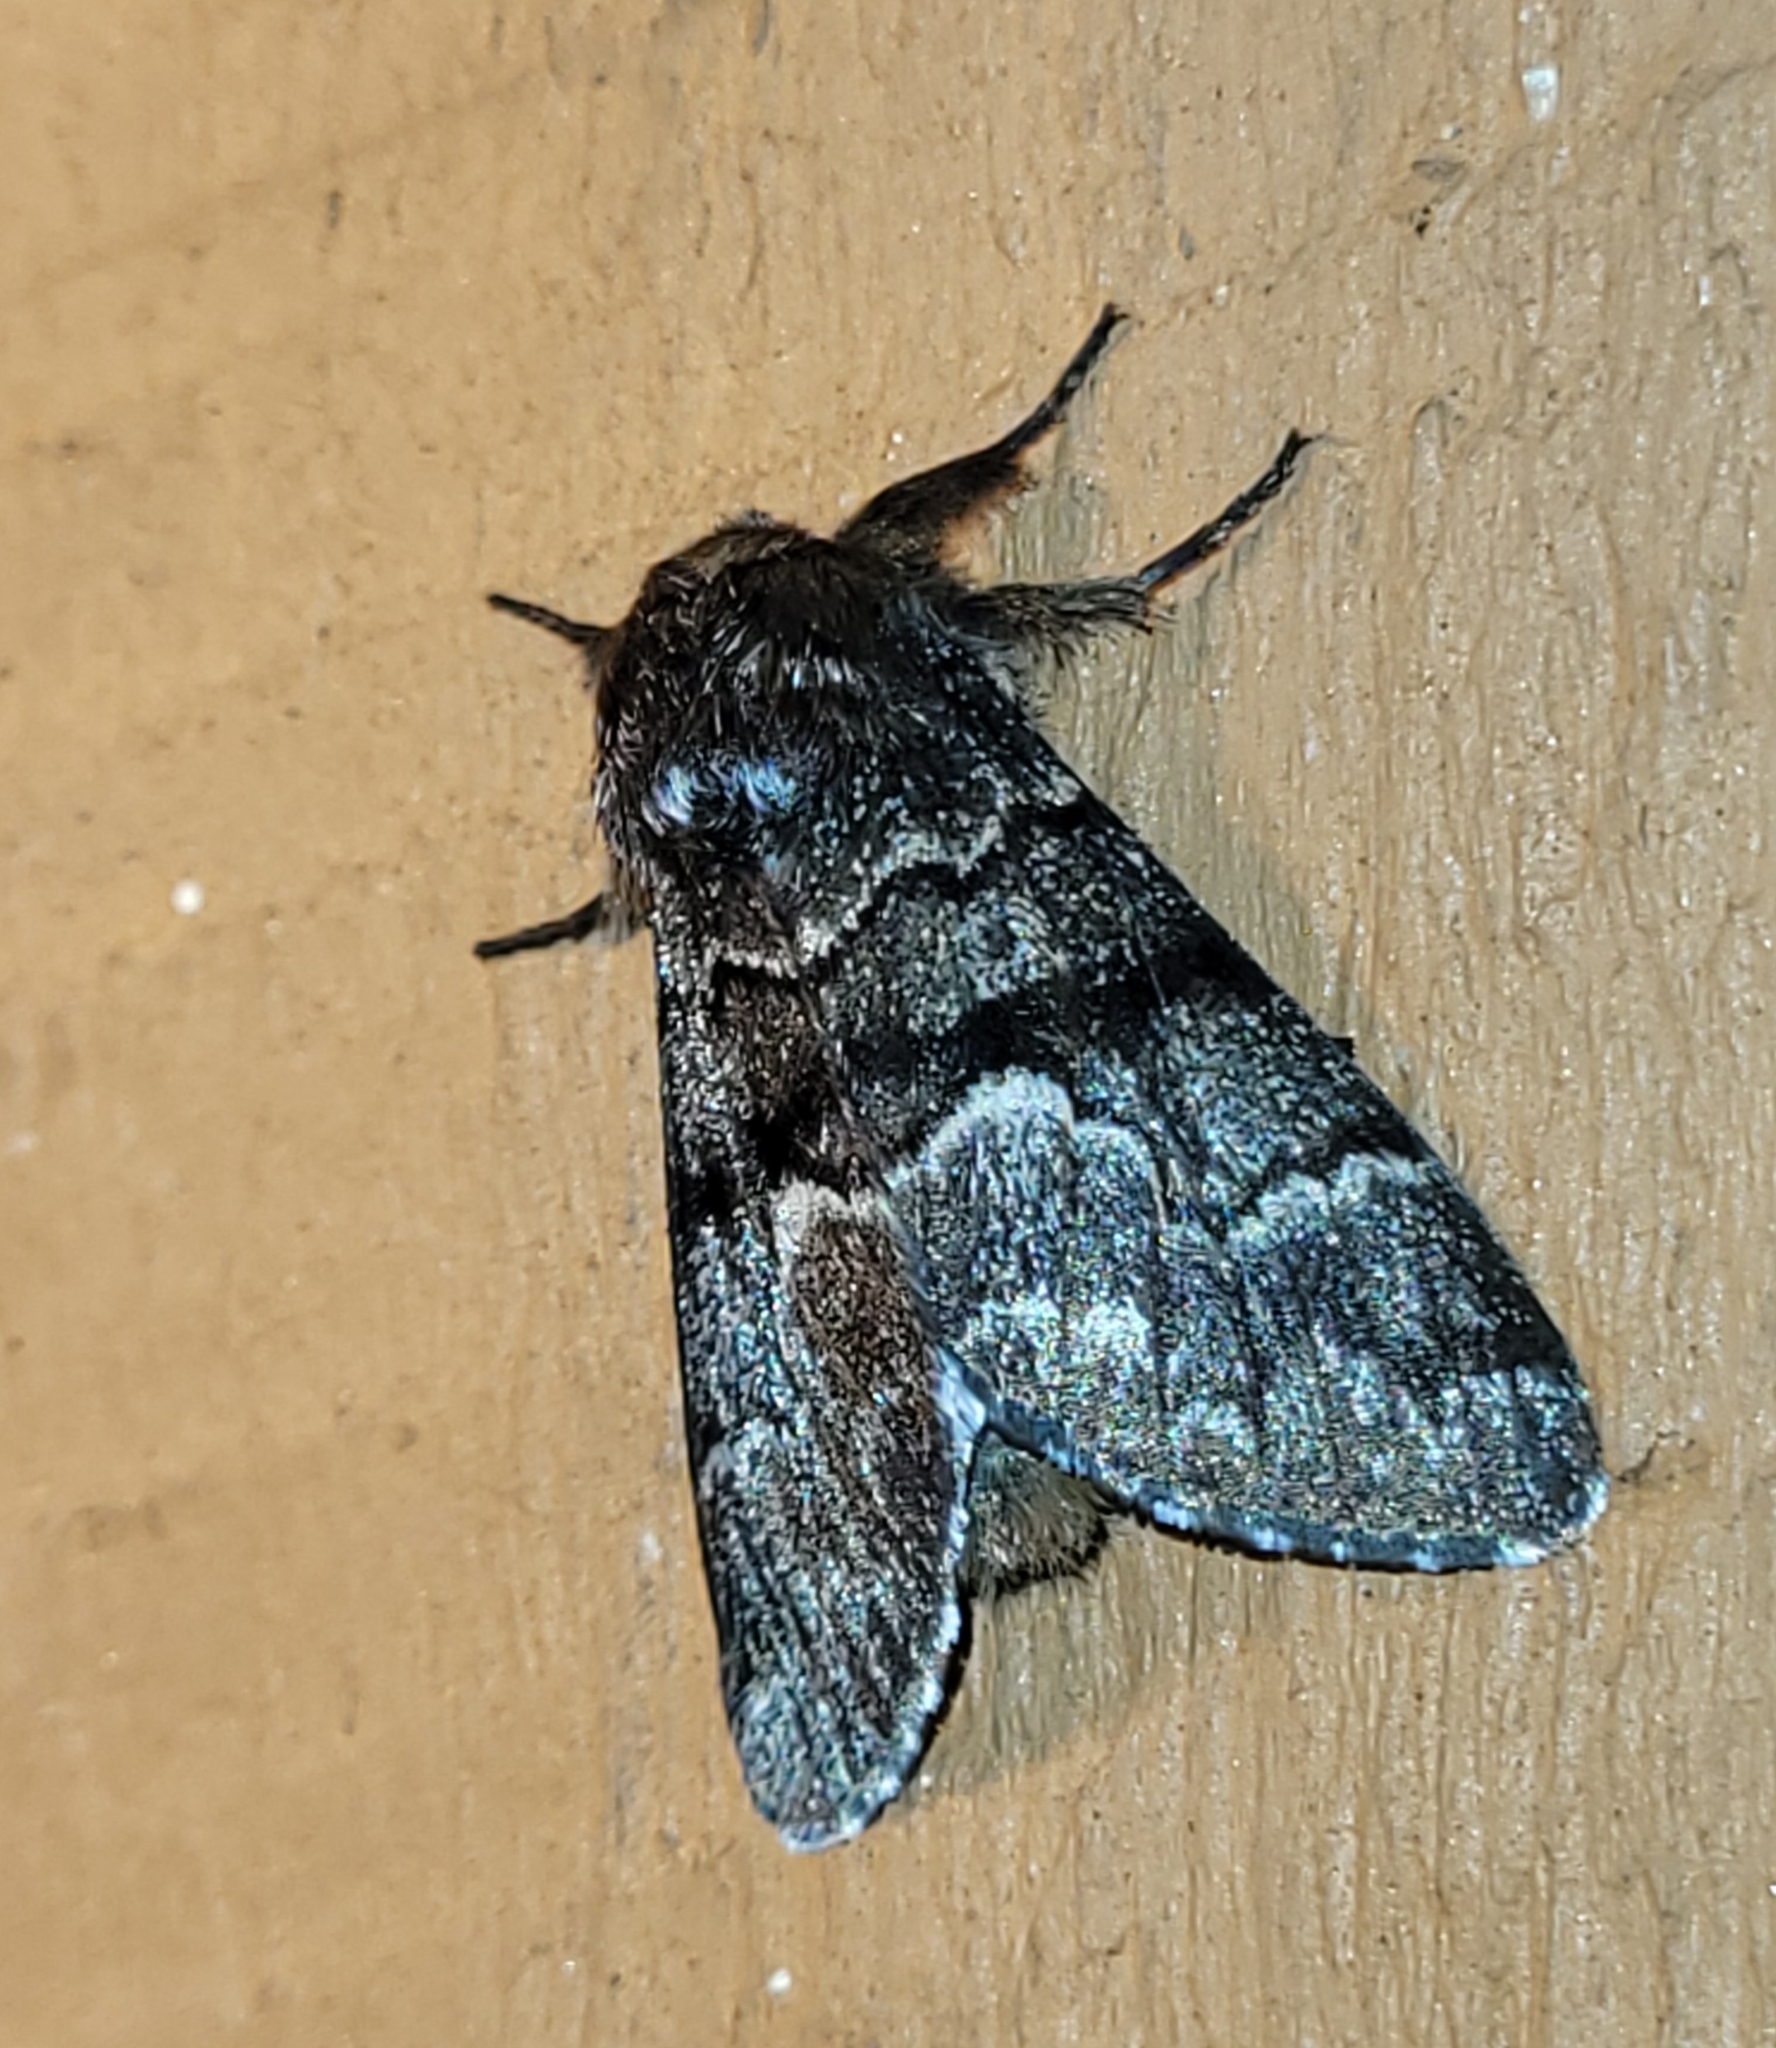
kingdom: Animalia
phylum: Arthropoda
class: Insecta
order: Lepidoptera
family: Noctuidae
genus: Panthea
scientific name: Panthea furcilla
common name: Eastern panthea moth
